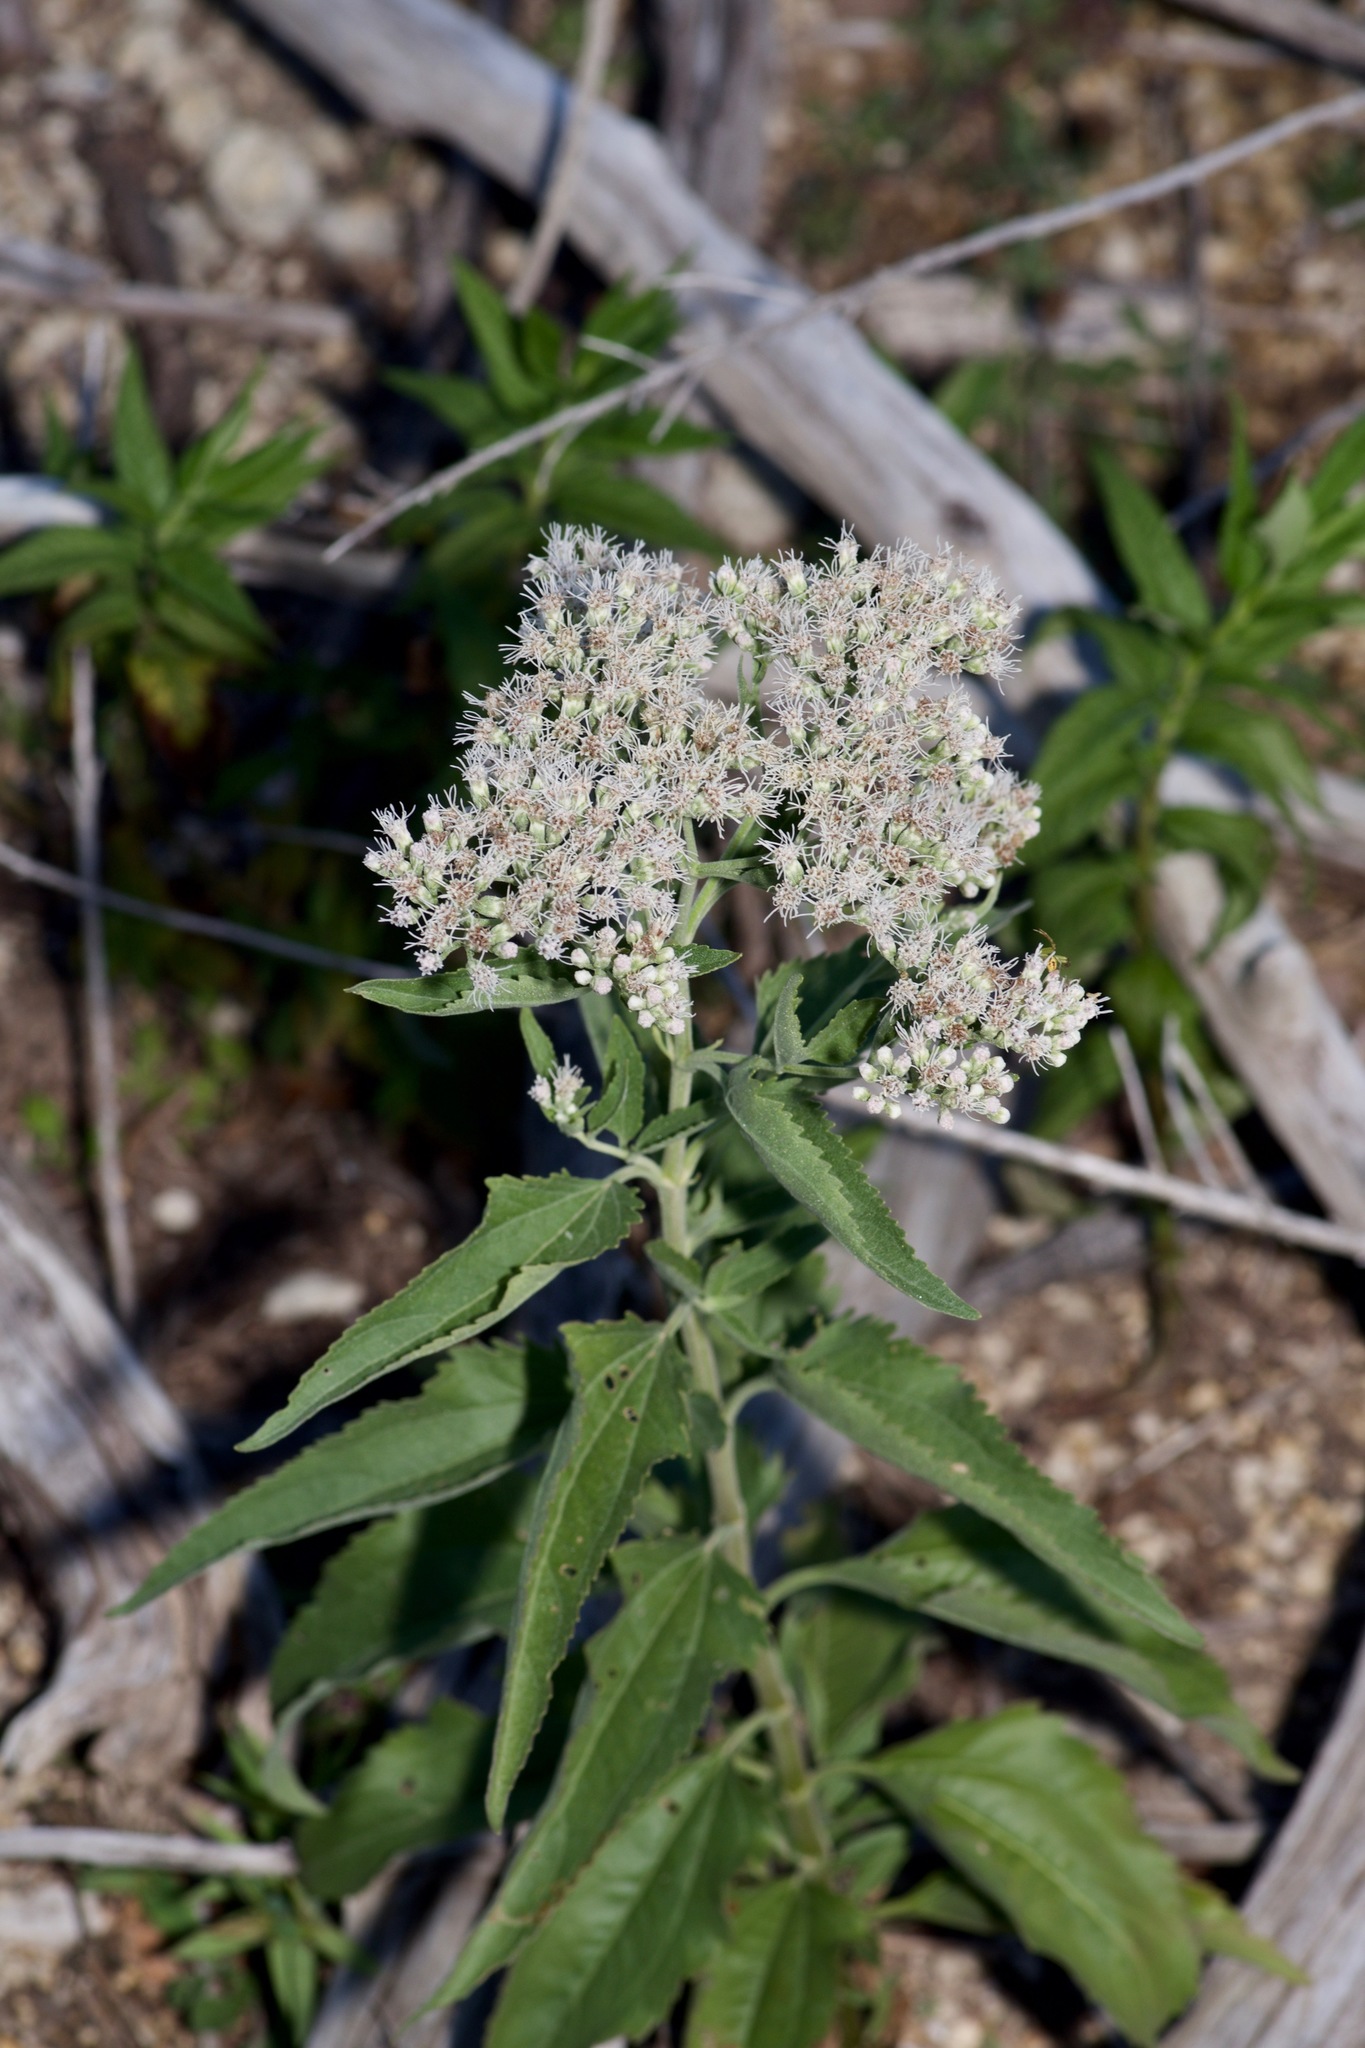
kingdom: Plantae
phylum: Tracheophyta
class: Magnoliopsida
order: Asterales
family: Asteraceae
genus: Eupatorium
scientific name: Eupatorium serotinum
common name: Late boneset
